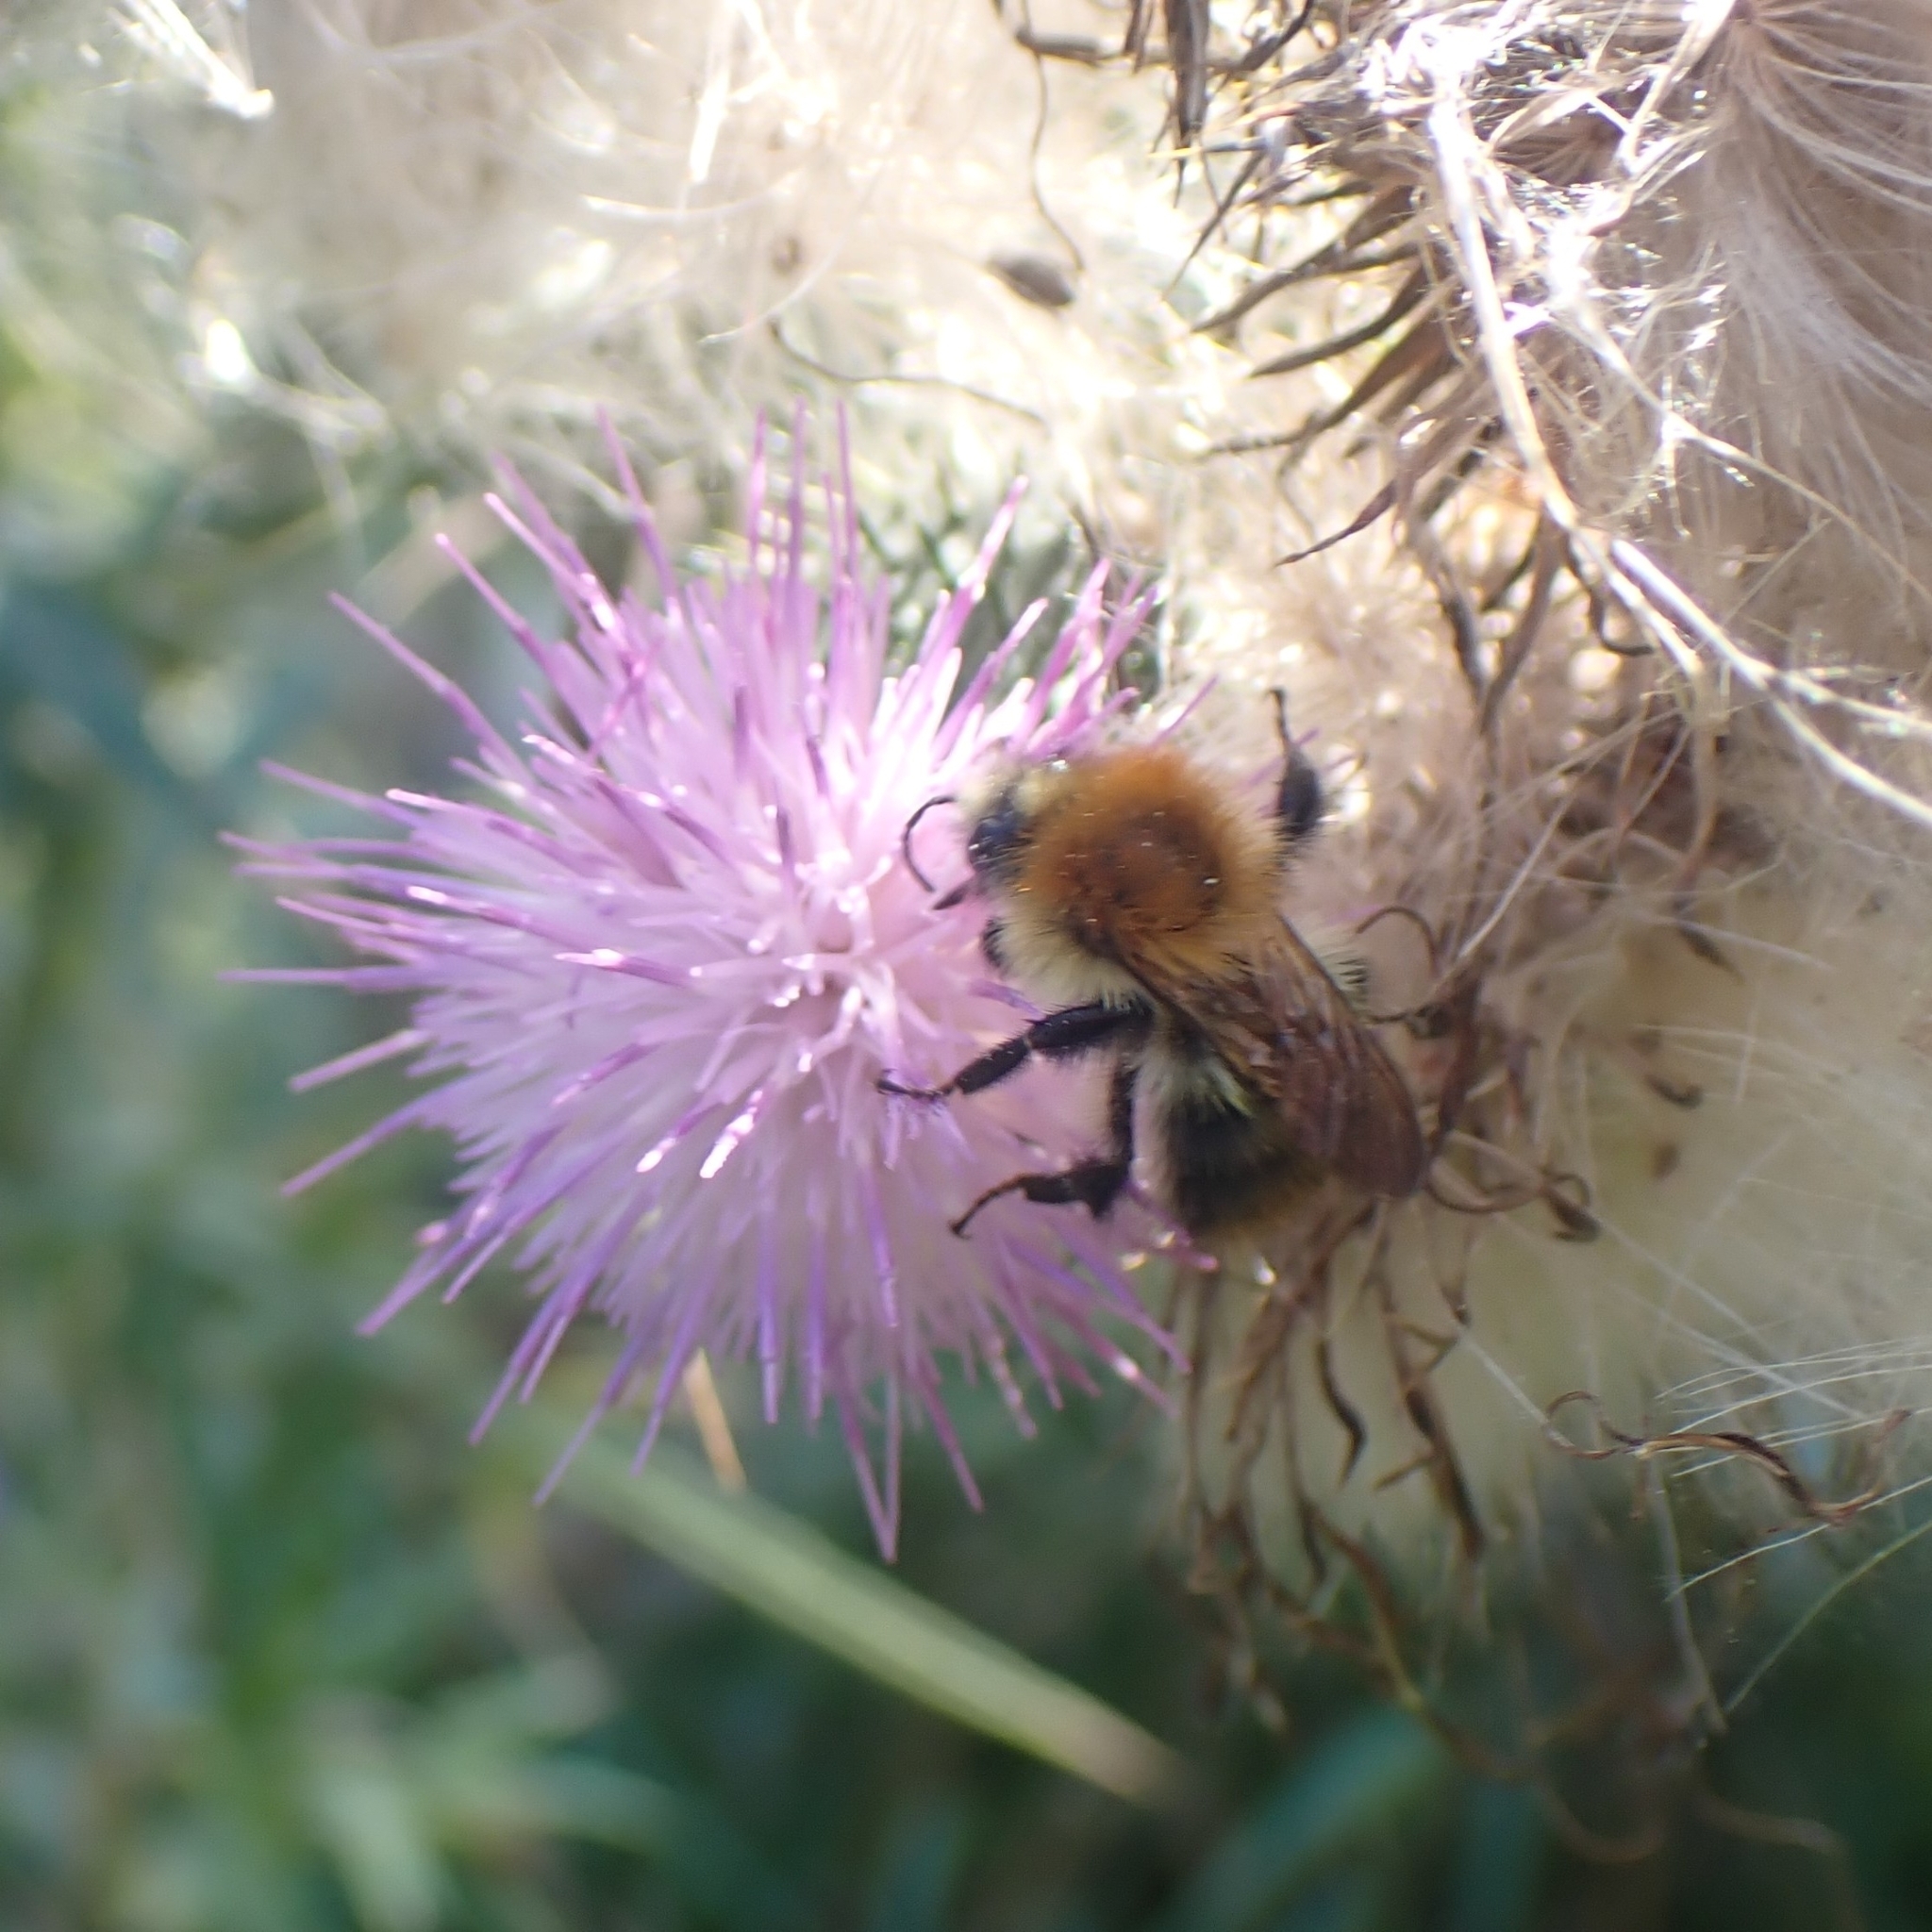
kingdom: Animalia
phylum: Arthropoda
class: Insecta
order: Hymenoptera
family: Apidae
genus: Bombus
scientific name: Bombus pascuorum
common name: Common carder bee
